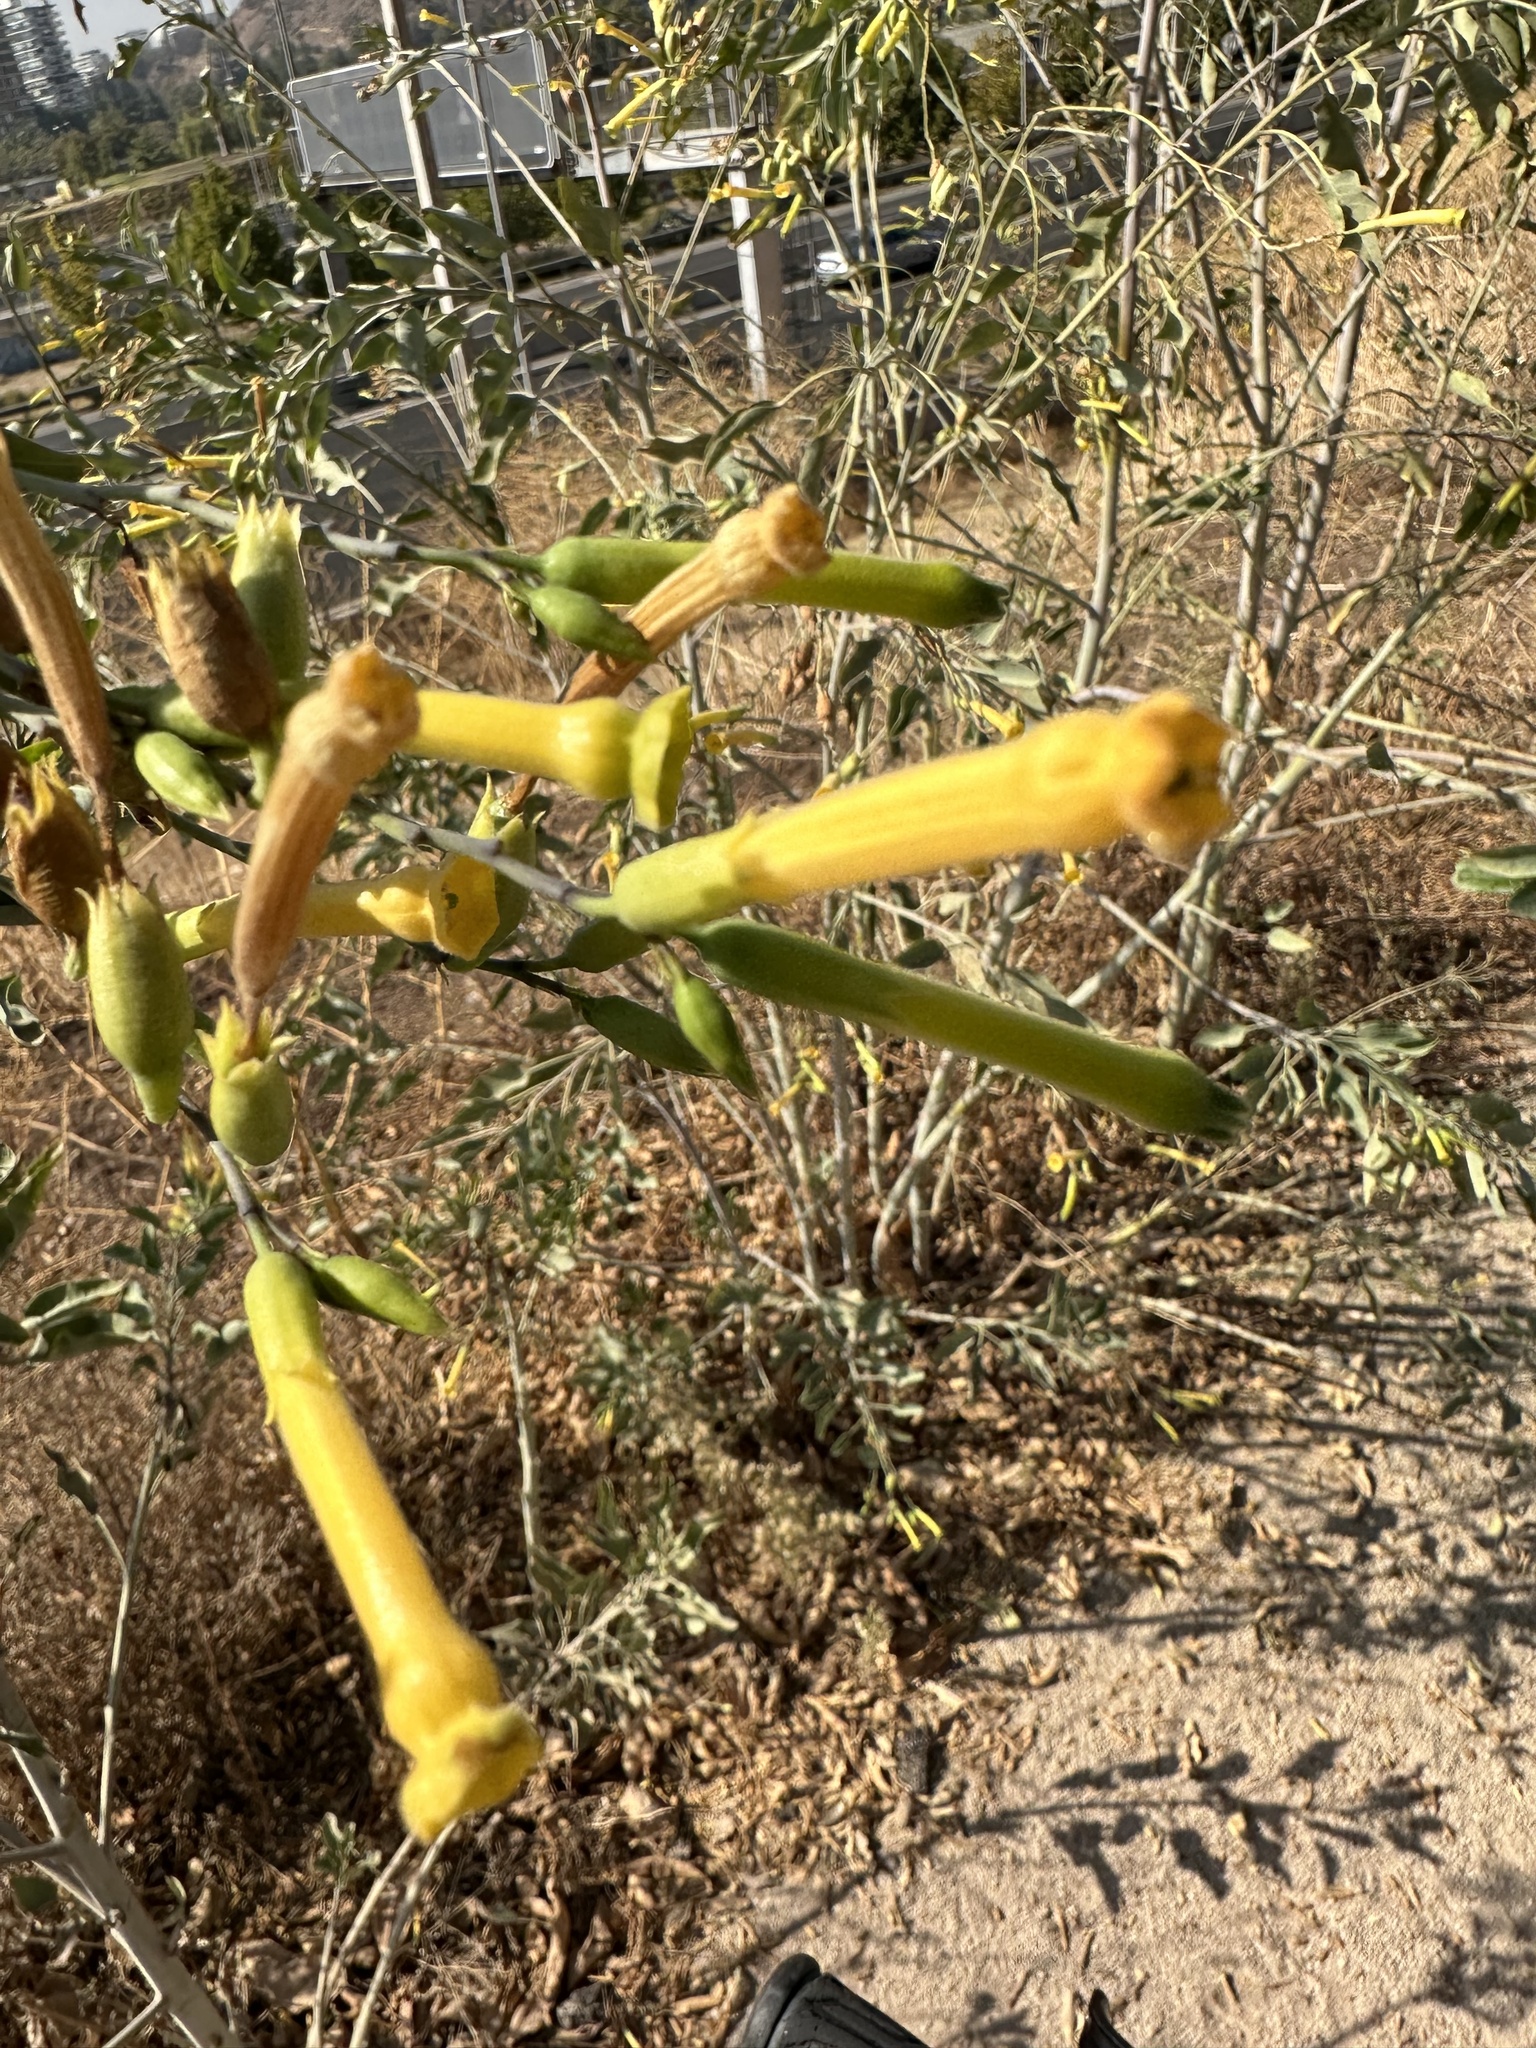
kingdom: Plantae
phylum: Tracheophyta
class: Magnoliopsida
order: Solanales
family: Solanaceae
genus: Nicotiana
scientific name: Nicotiana glauca
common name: Tree tobacco
